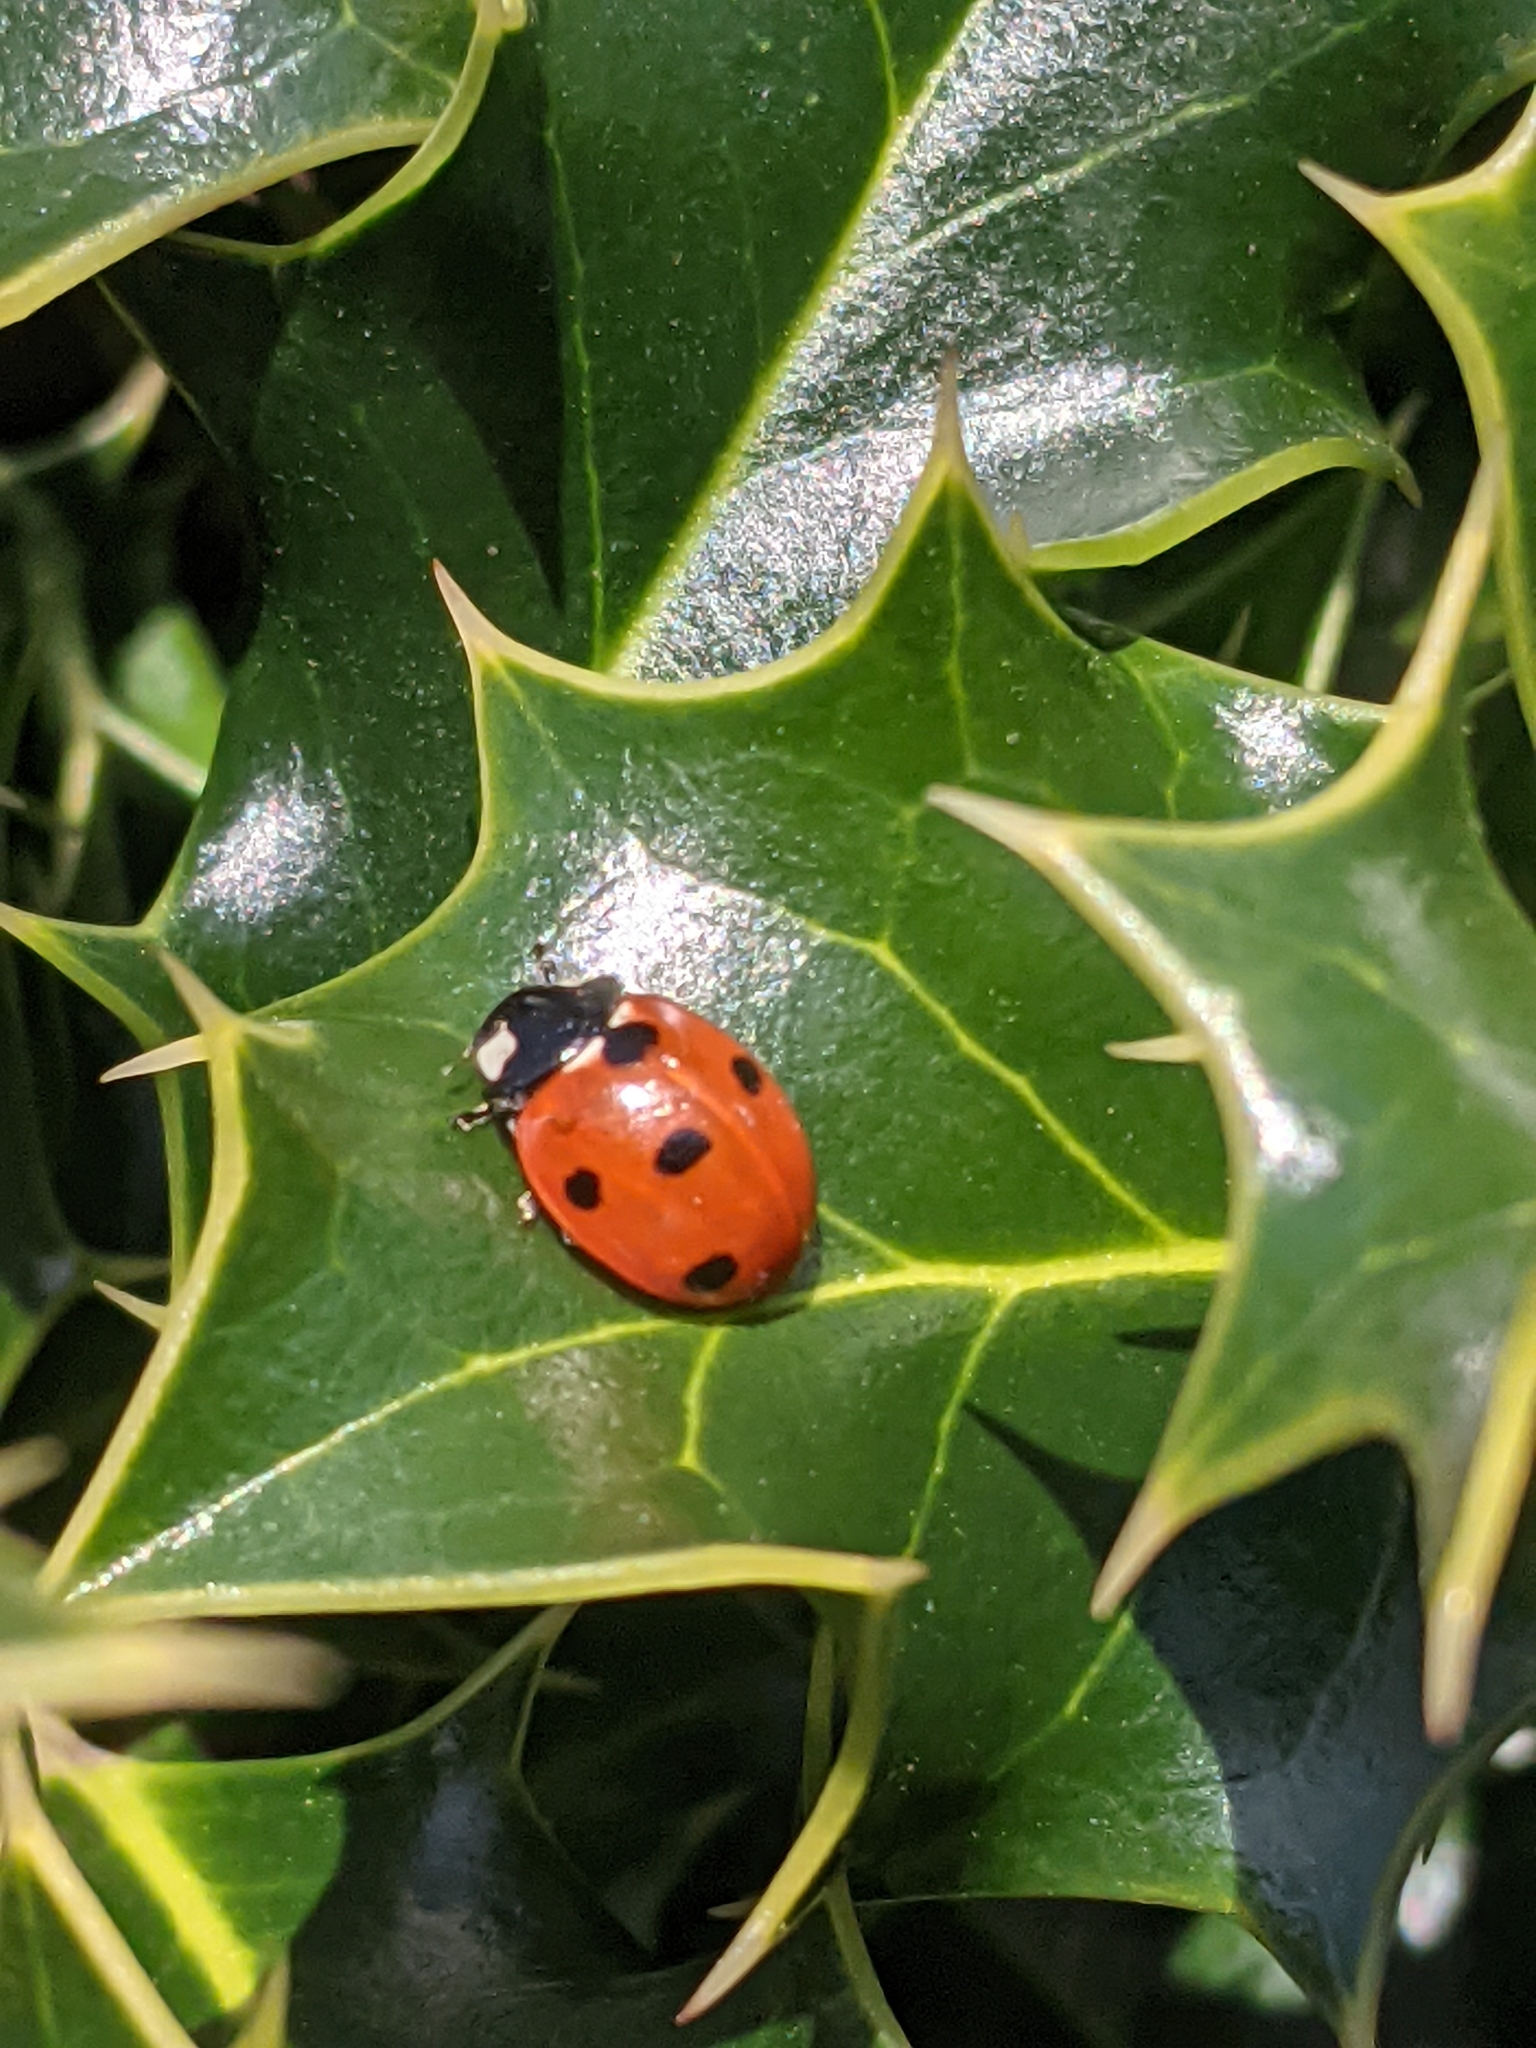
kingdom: Animalia
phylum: Arthropoda
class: Insecta
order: Coleoptera
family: Coccinellidae
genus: Coccinella
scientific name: Coccinella septempunctata
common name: Sevenspotted lady beetle
